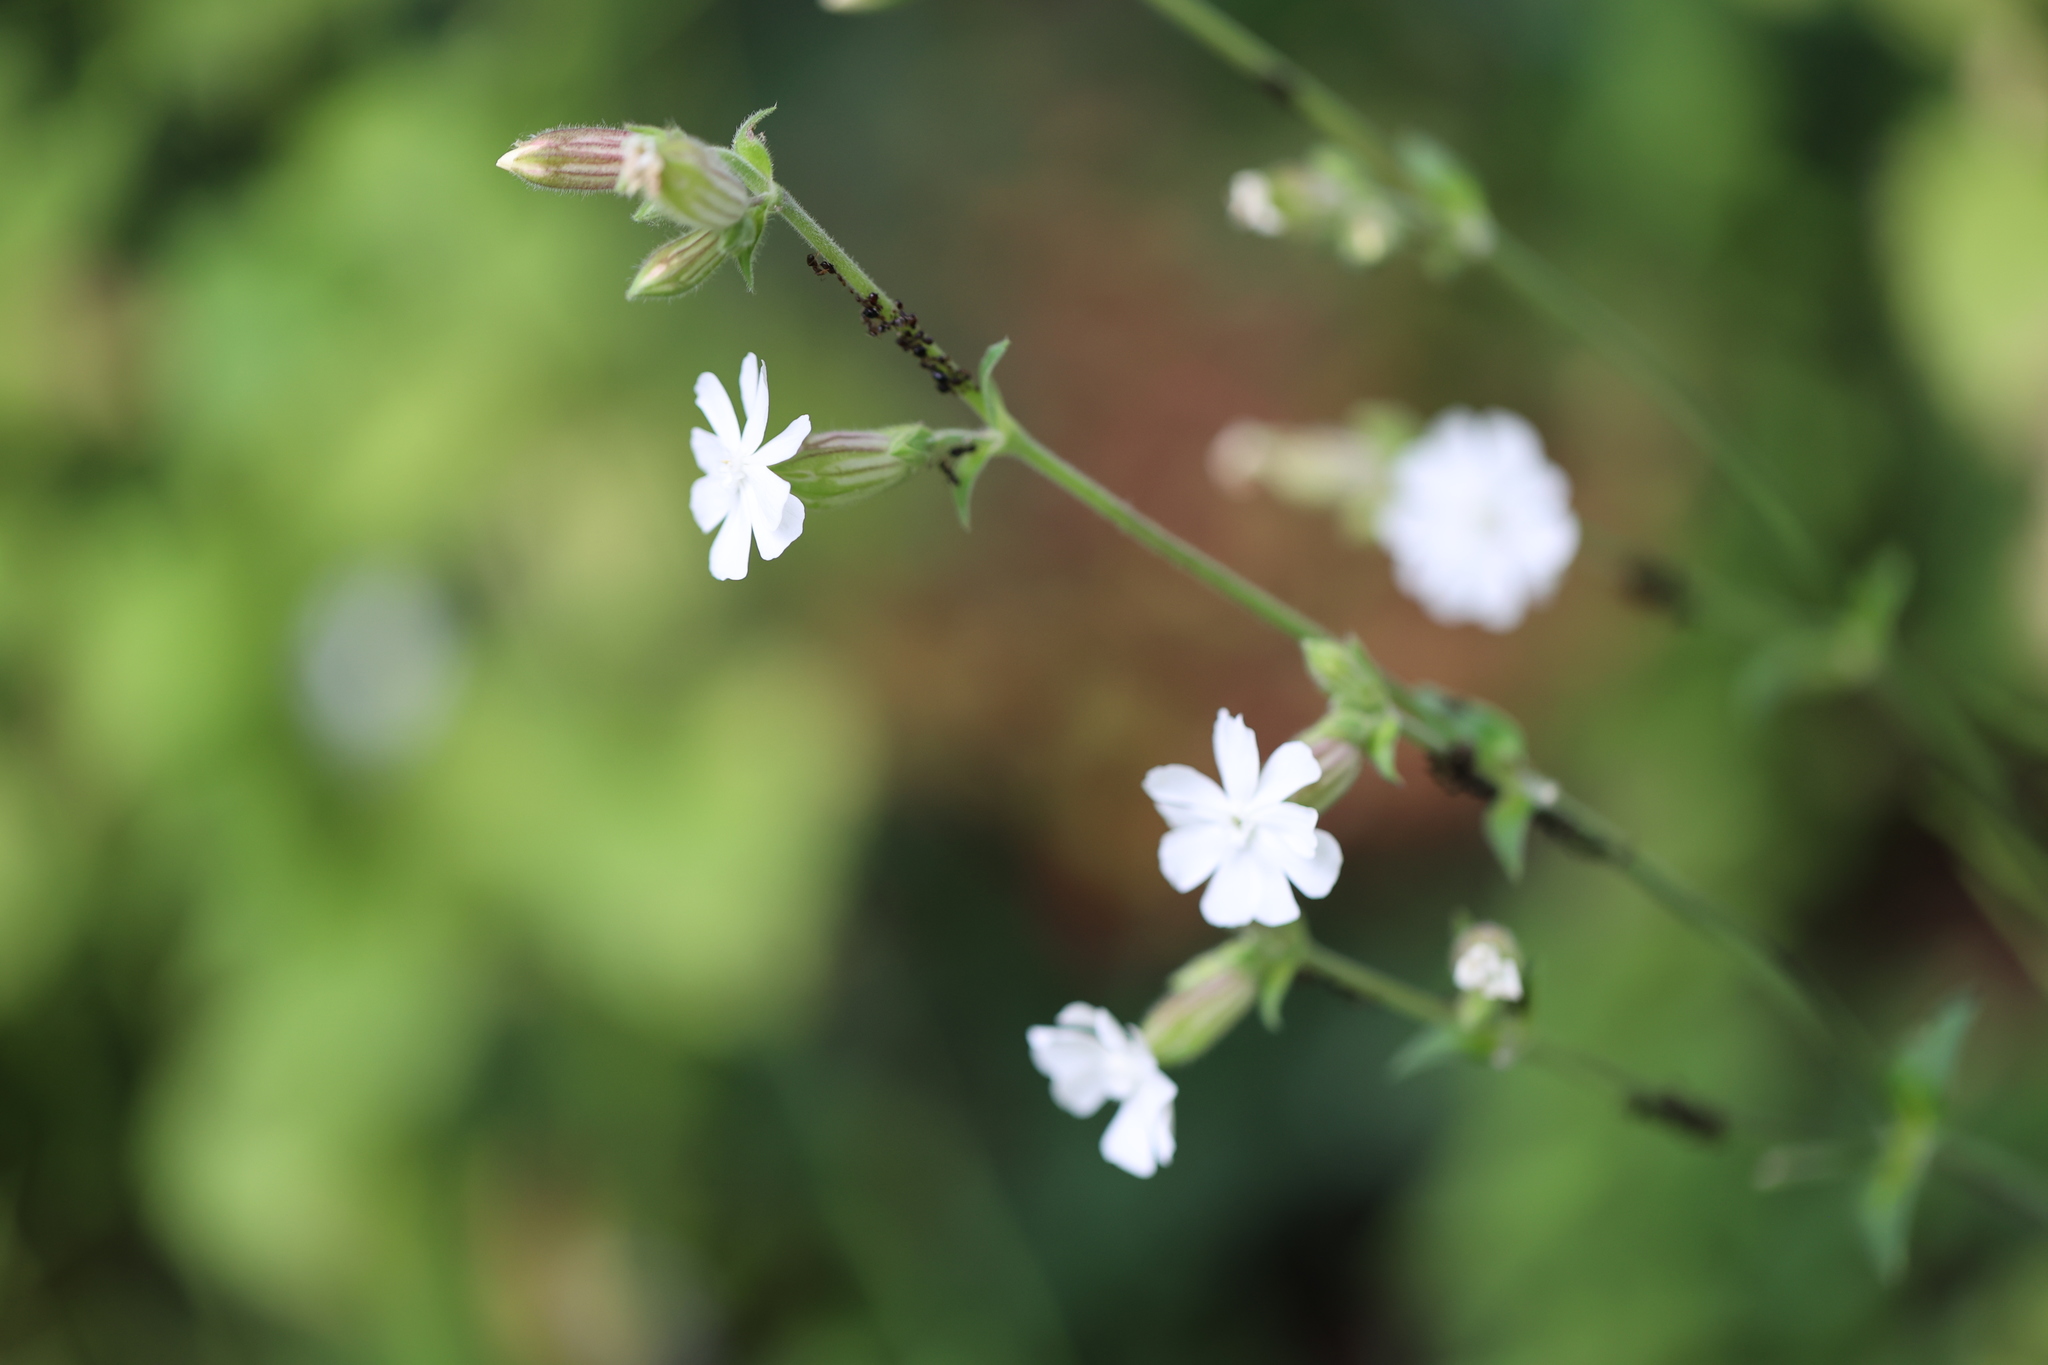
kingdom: Plantae
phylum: Tracheophyta
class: Magnoliopsida
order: Caryophyllales
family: Caryophyllaceae
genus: Silene
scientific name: Silene latifolia
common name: White campion
